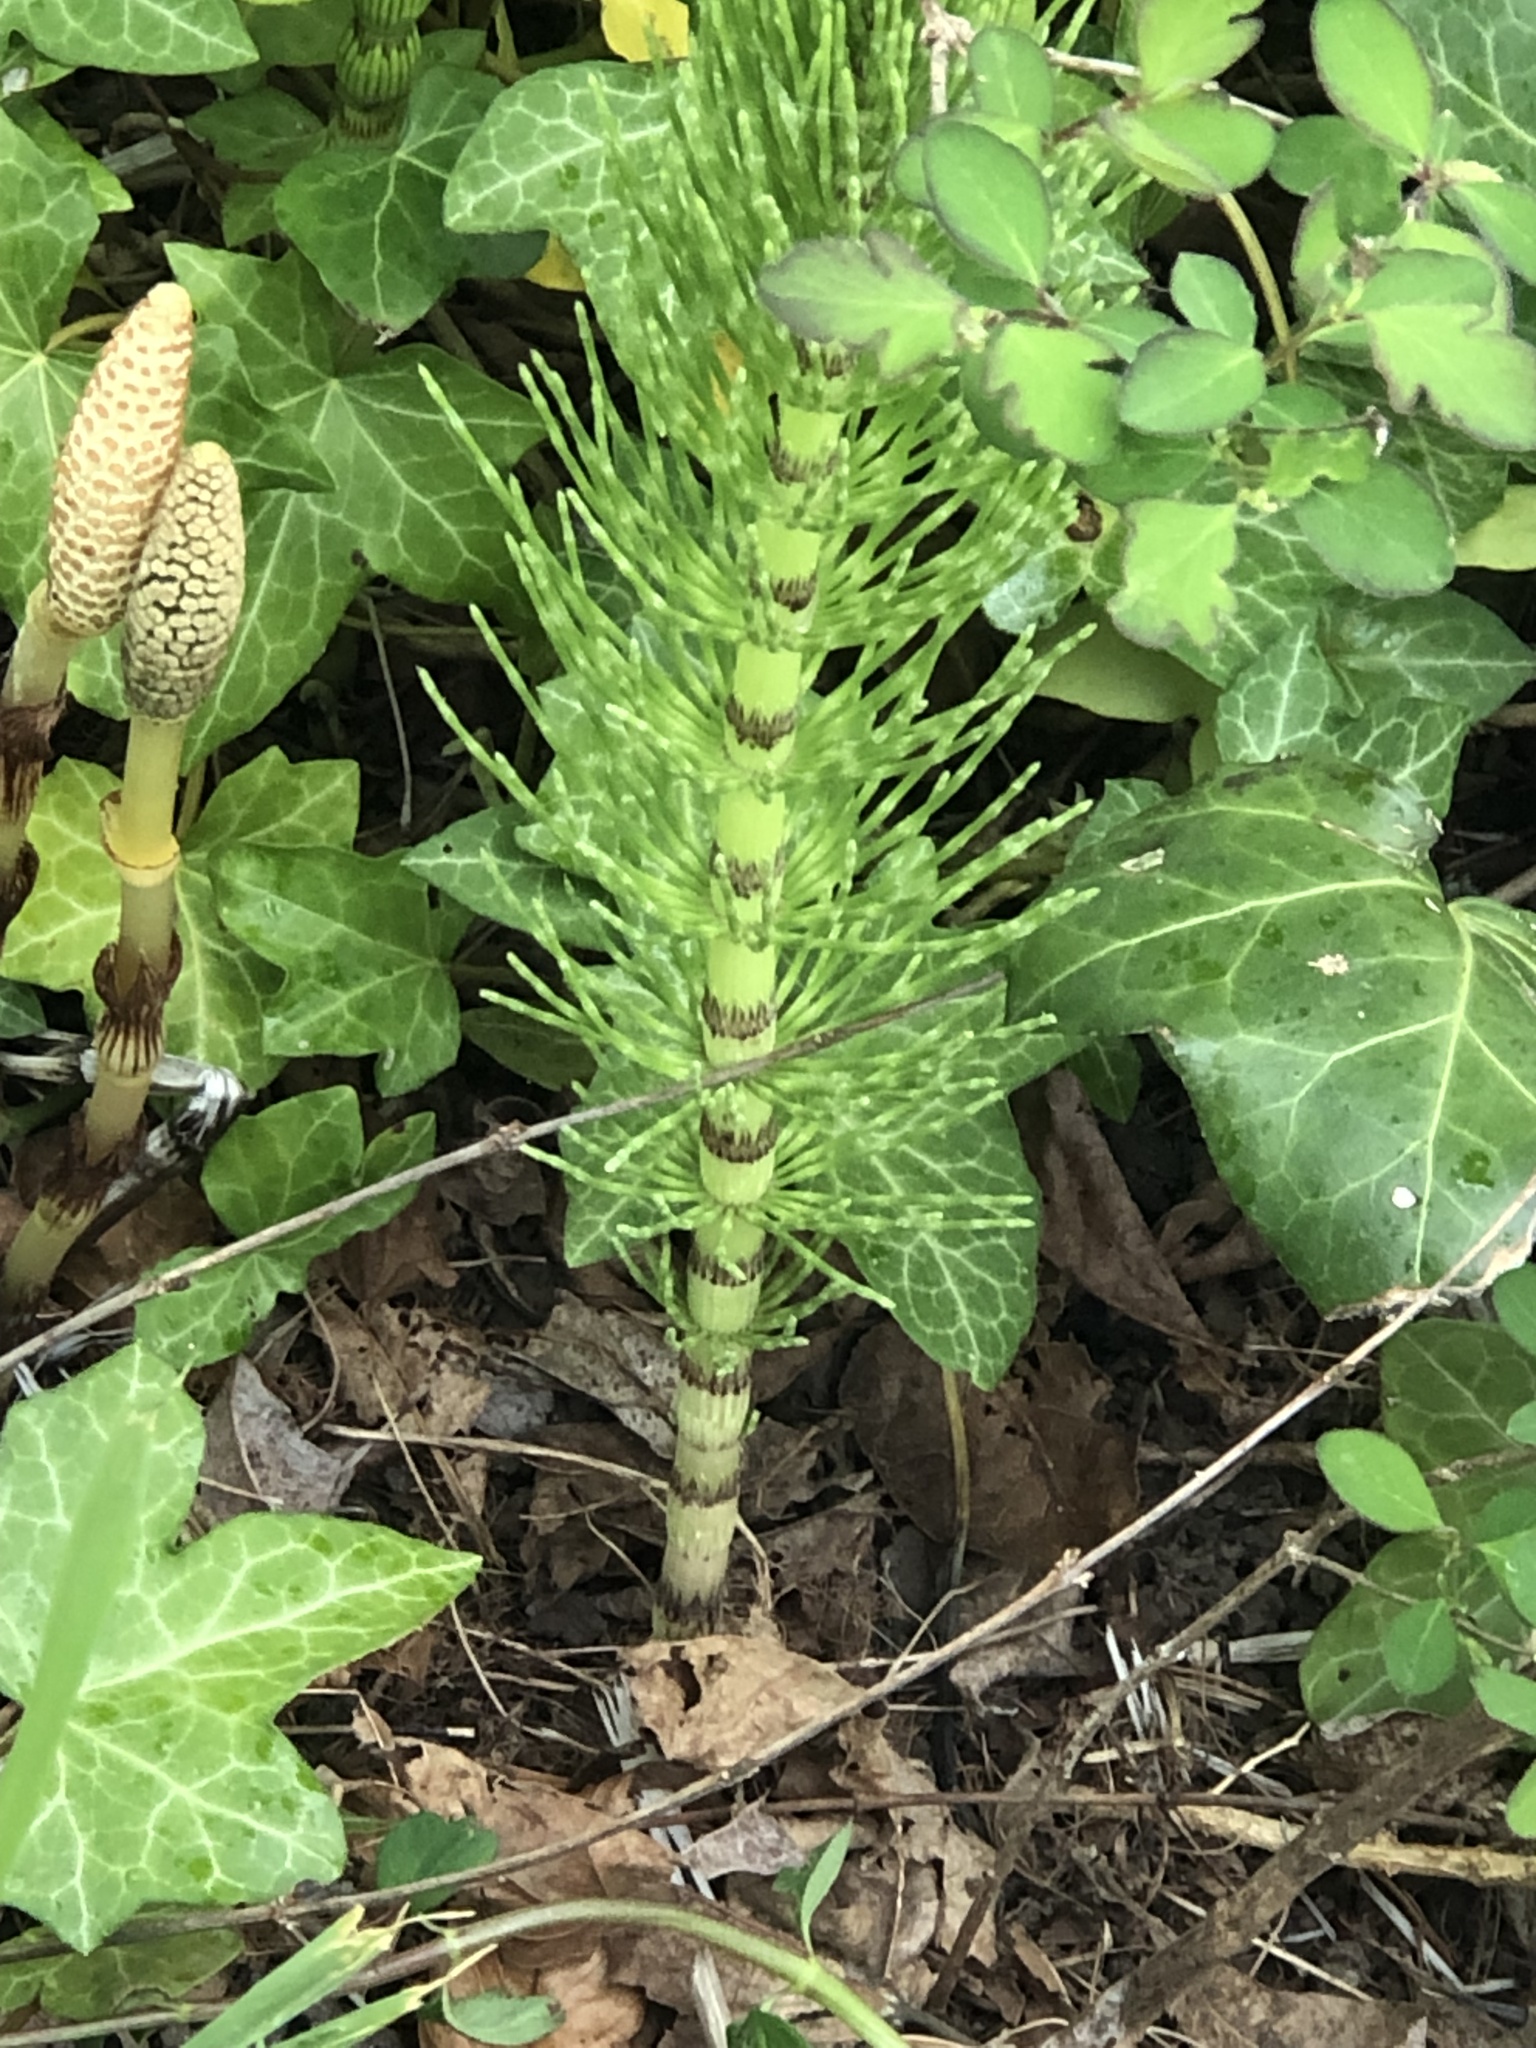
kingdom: Plantae
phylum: Tracheophyta
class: Polypodiopsida
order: Equisetales
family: Equisetaceae
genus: Equisetum
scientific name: Equisetum braunii
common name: Braun's horsetail
